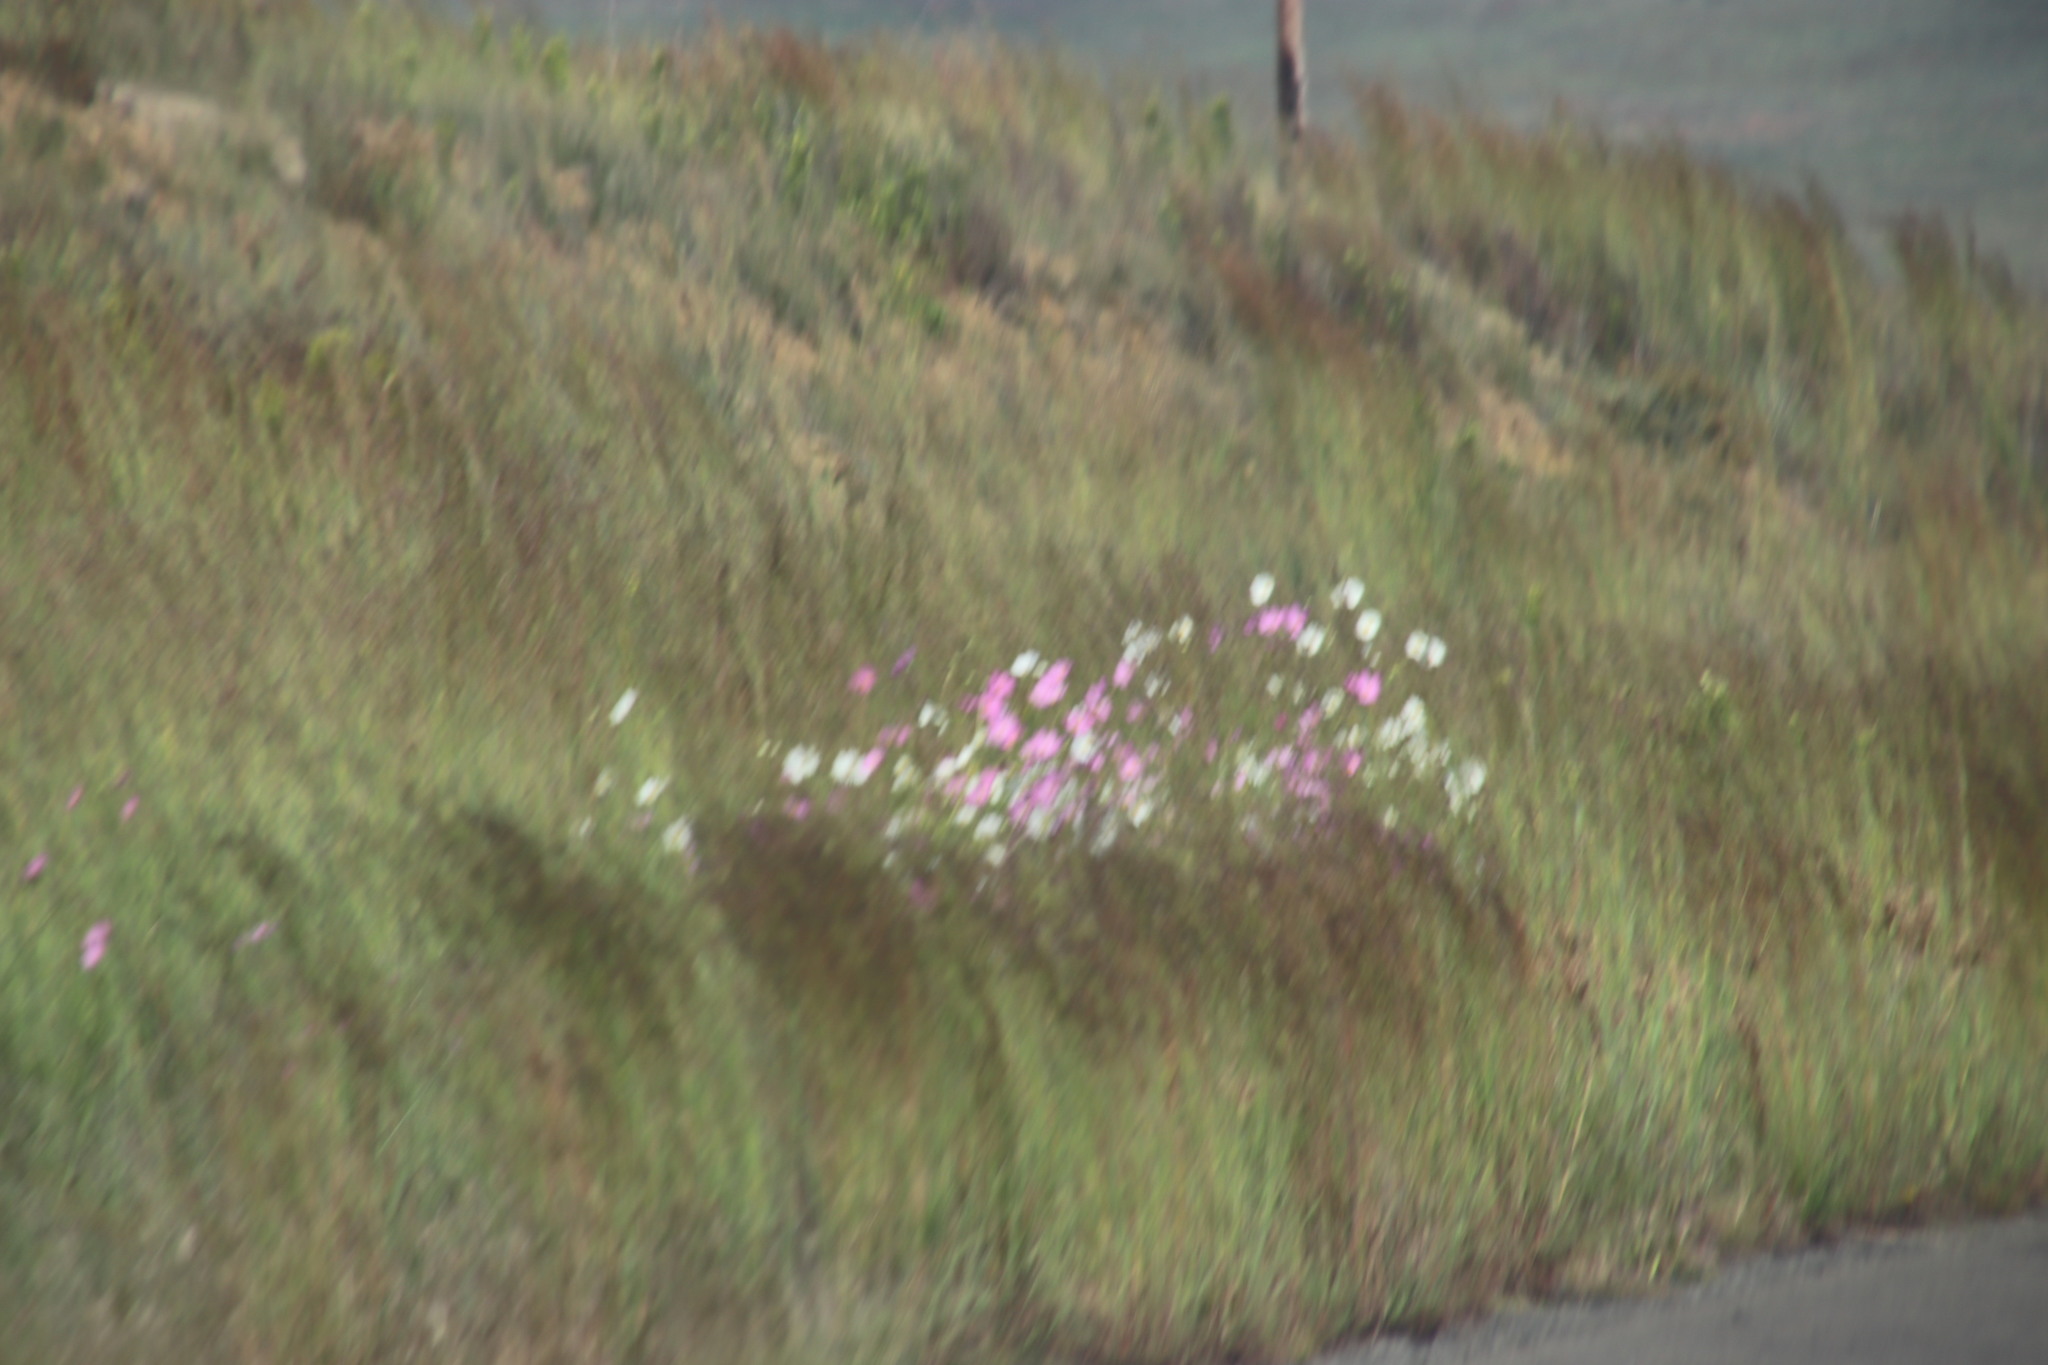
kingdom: Plantae
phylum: Tracheophyta
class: Magnoliopsida
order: Asterales
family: Asteraceae
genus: Cosmos
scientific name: Cosmos bipinnatus
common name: Garden cosmos
